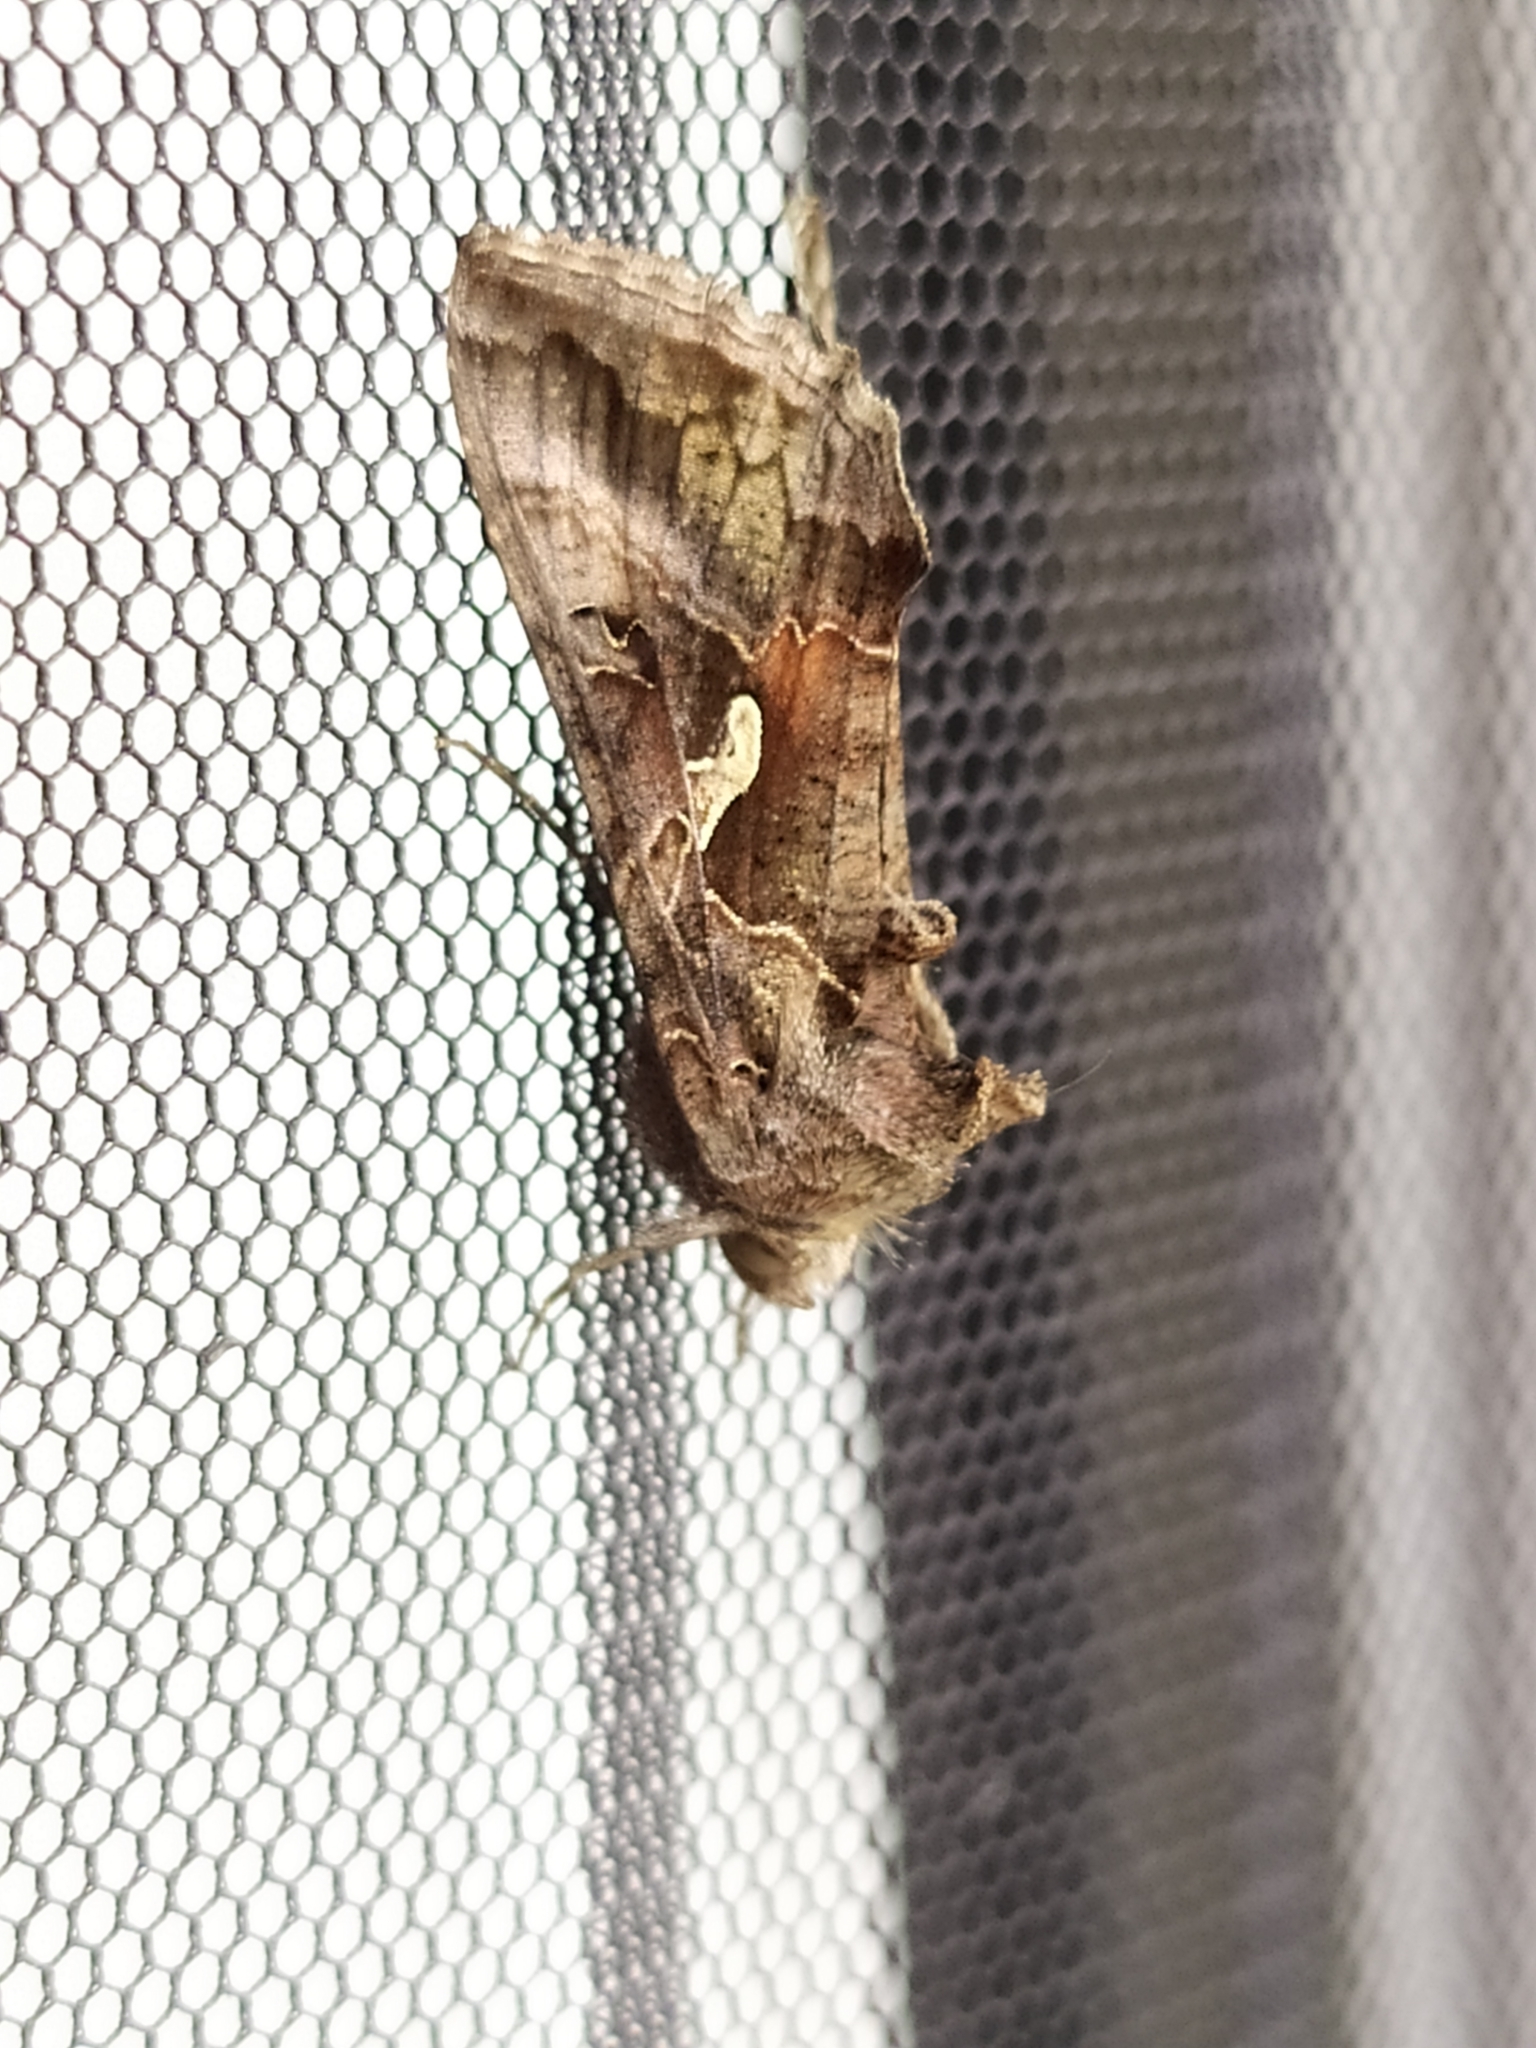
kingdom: Animalia
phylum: Arthropoda
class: Insecta
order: Lepidoptera
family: Noctuidae
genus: Autographa
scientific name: Autographa gamma
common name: Silver y
